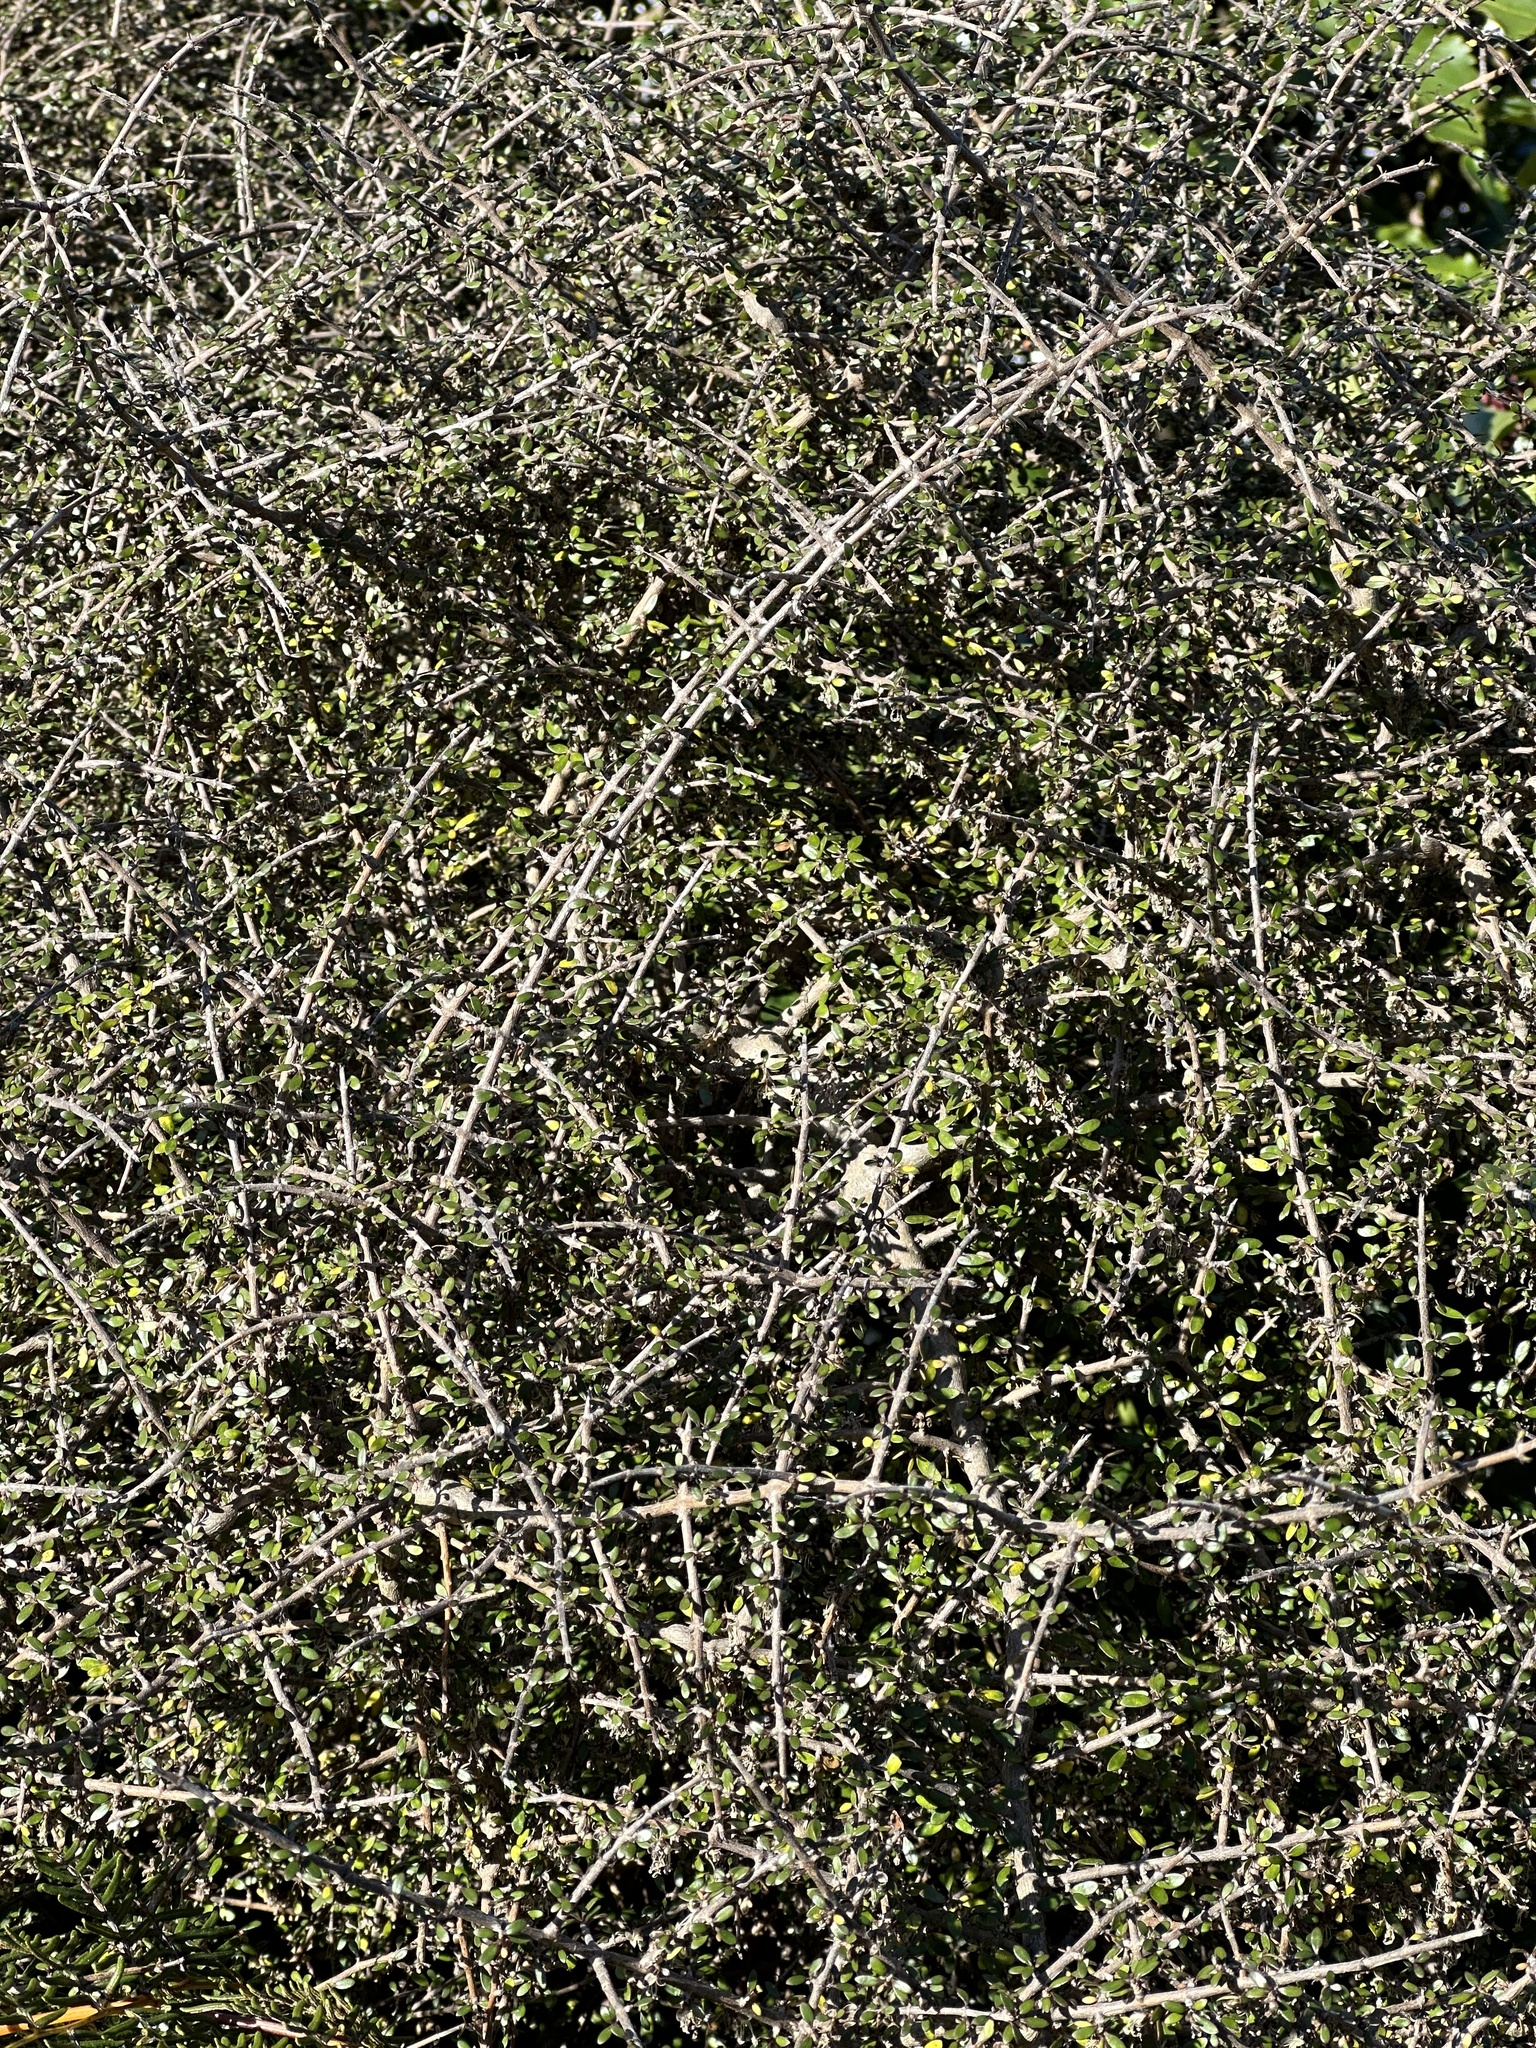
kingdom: Plantae
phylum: Tracheophyta
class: Magnoliopsida
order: Gentianales
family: Rubiaceae
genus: Coprosma
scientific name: Coprosma propinqua
